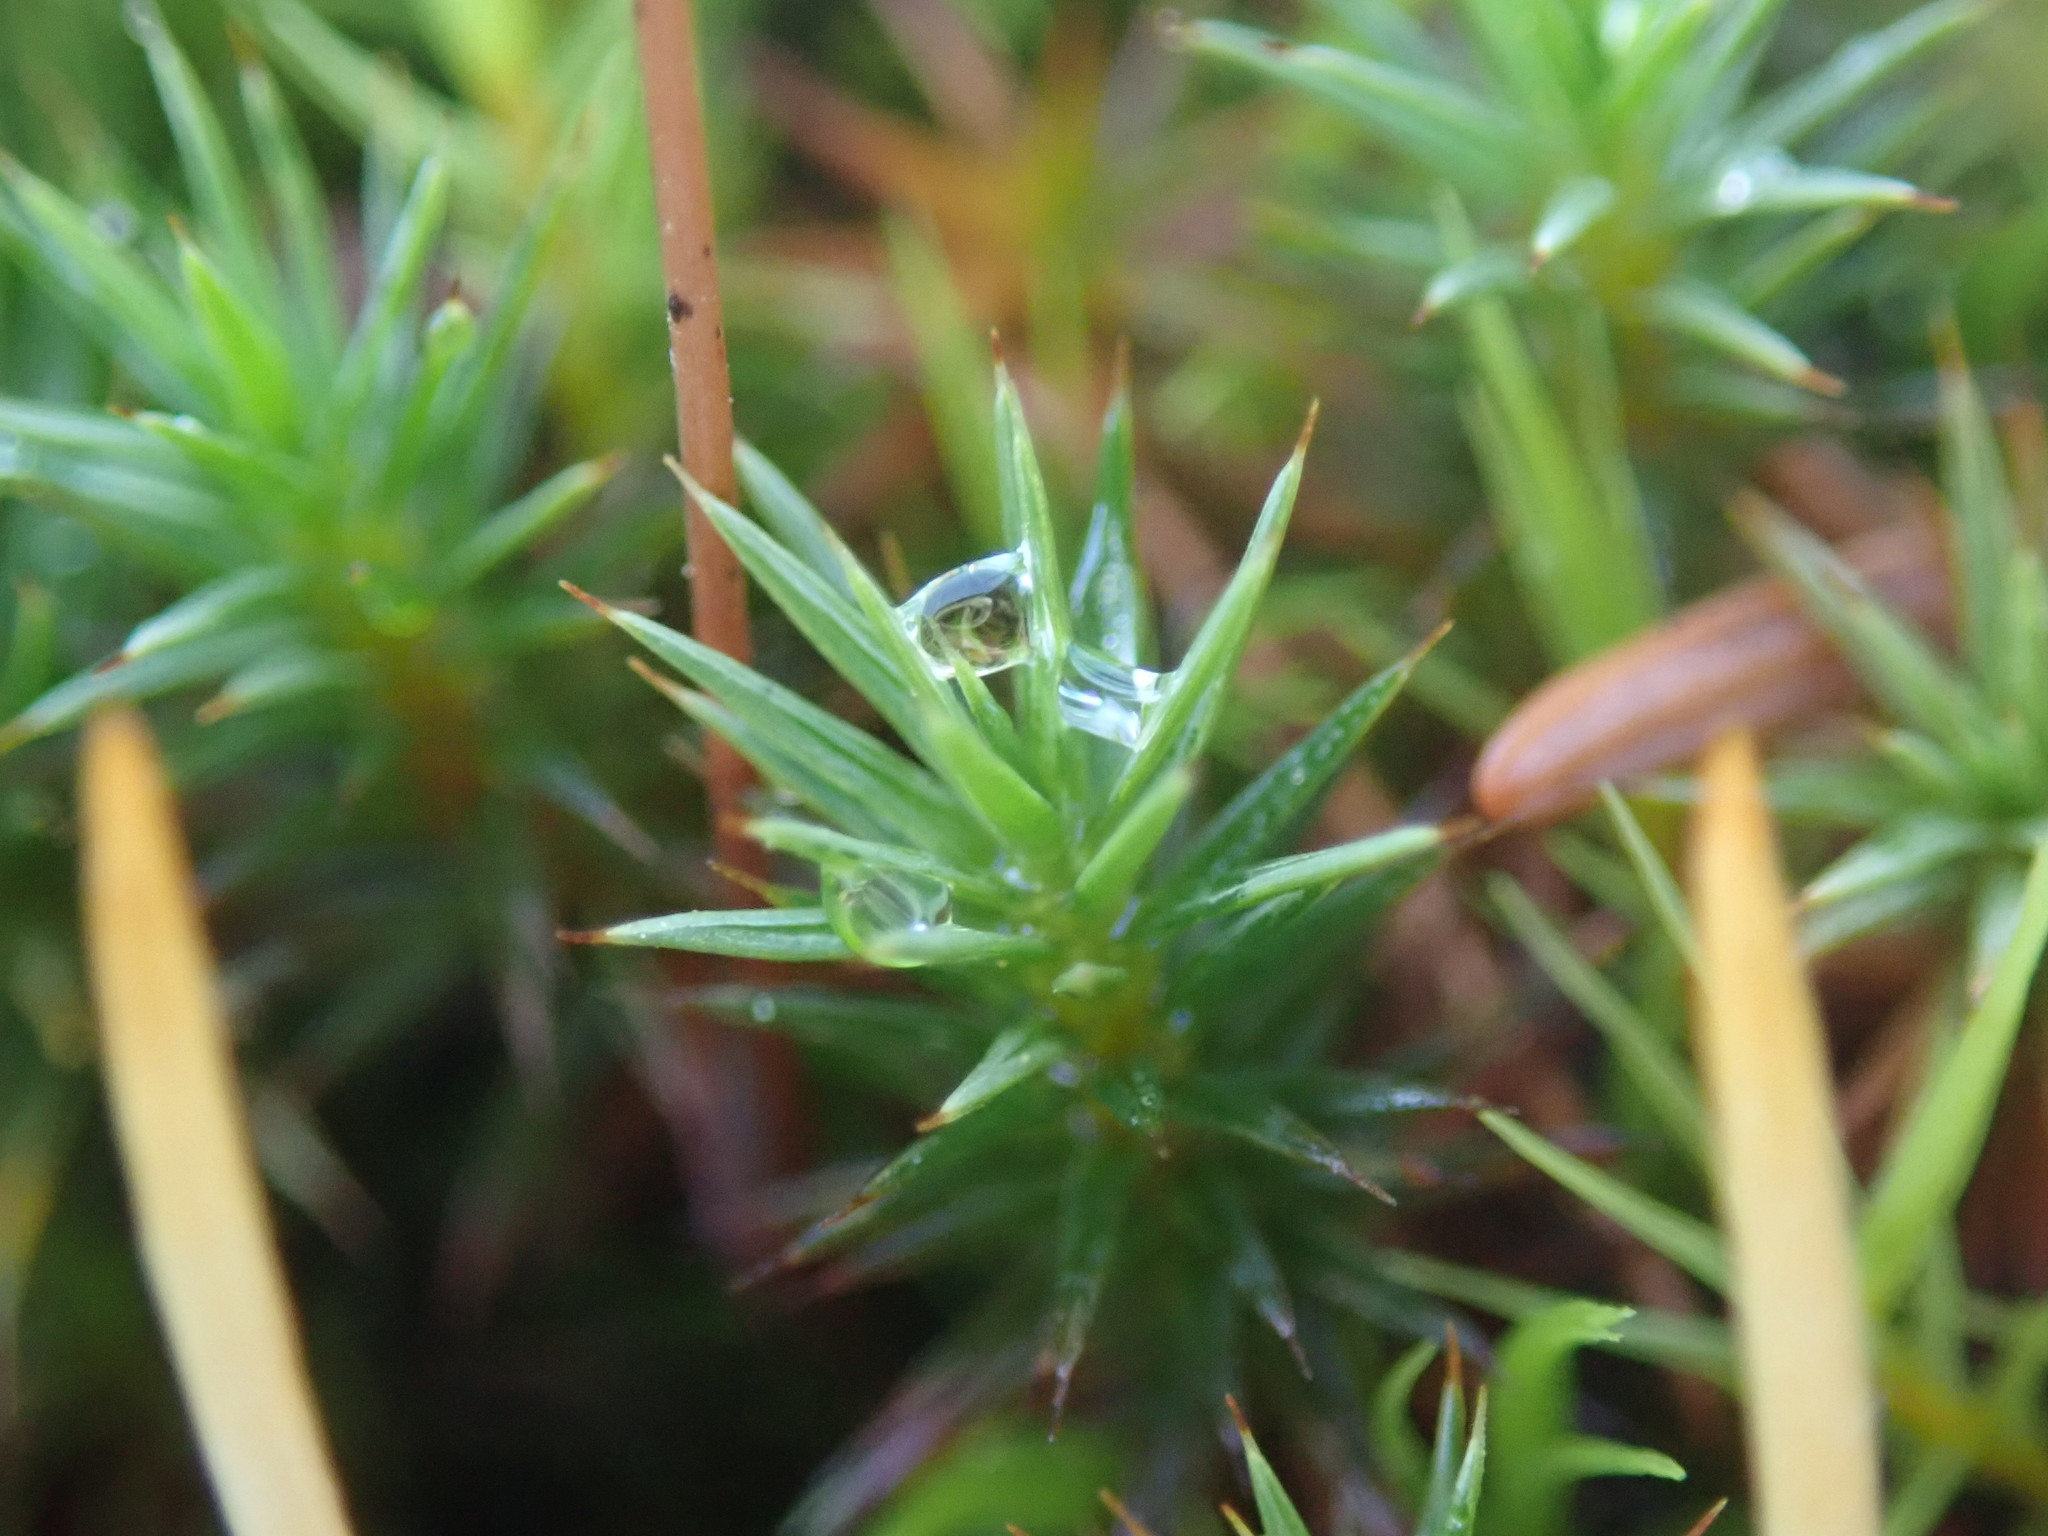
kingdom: Plantae
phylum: Bryophyta
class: Polytrichopsida
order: Polytrichales
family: Polytrichaceae
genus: Polytrichum
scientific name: Polytrichum juniperinum
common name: Juniper haircap moss
